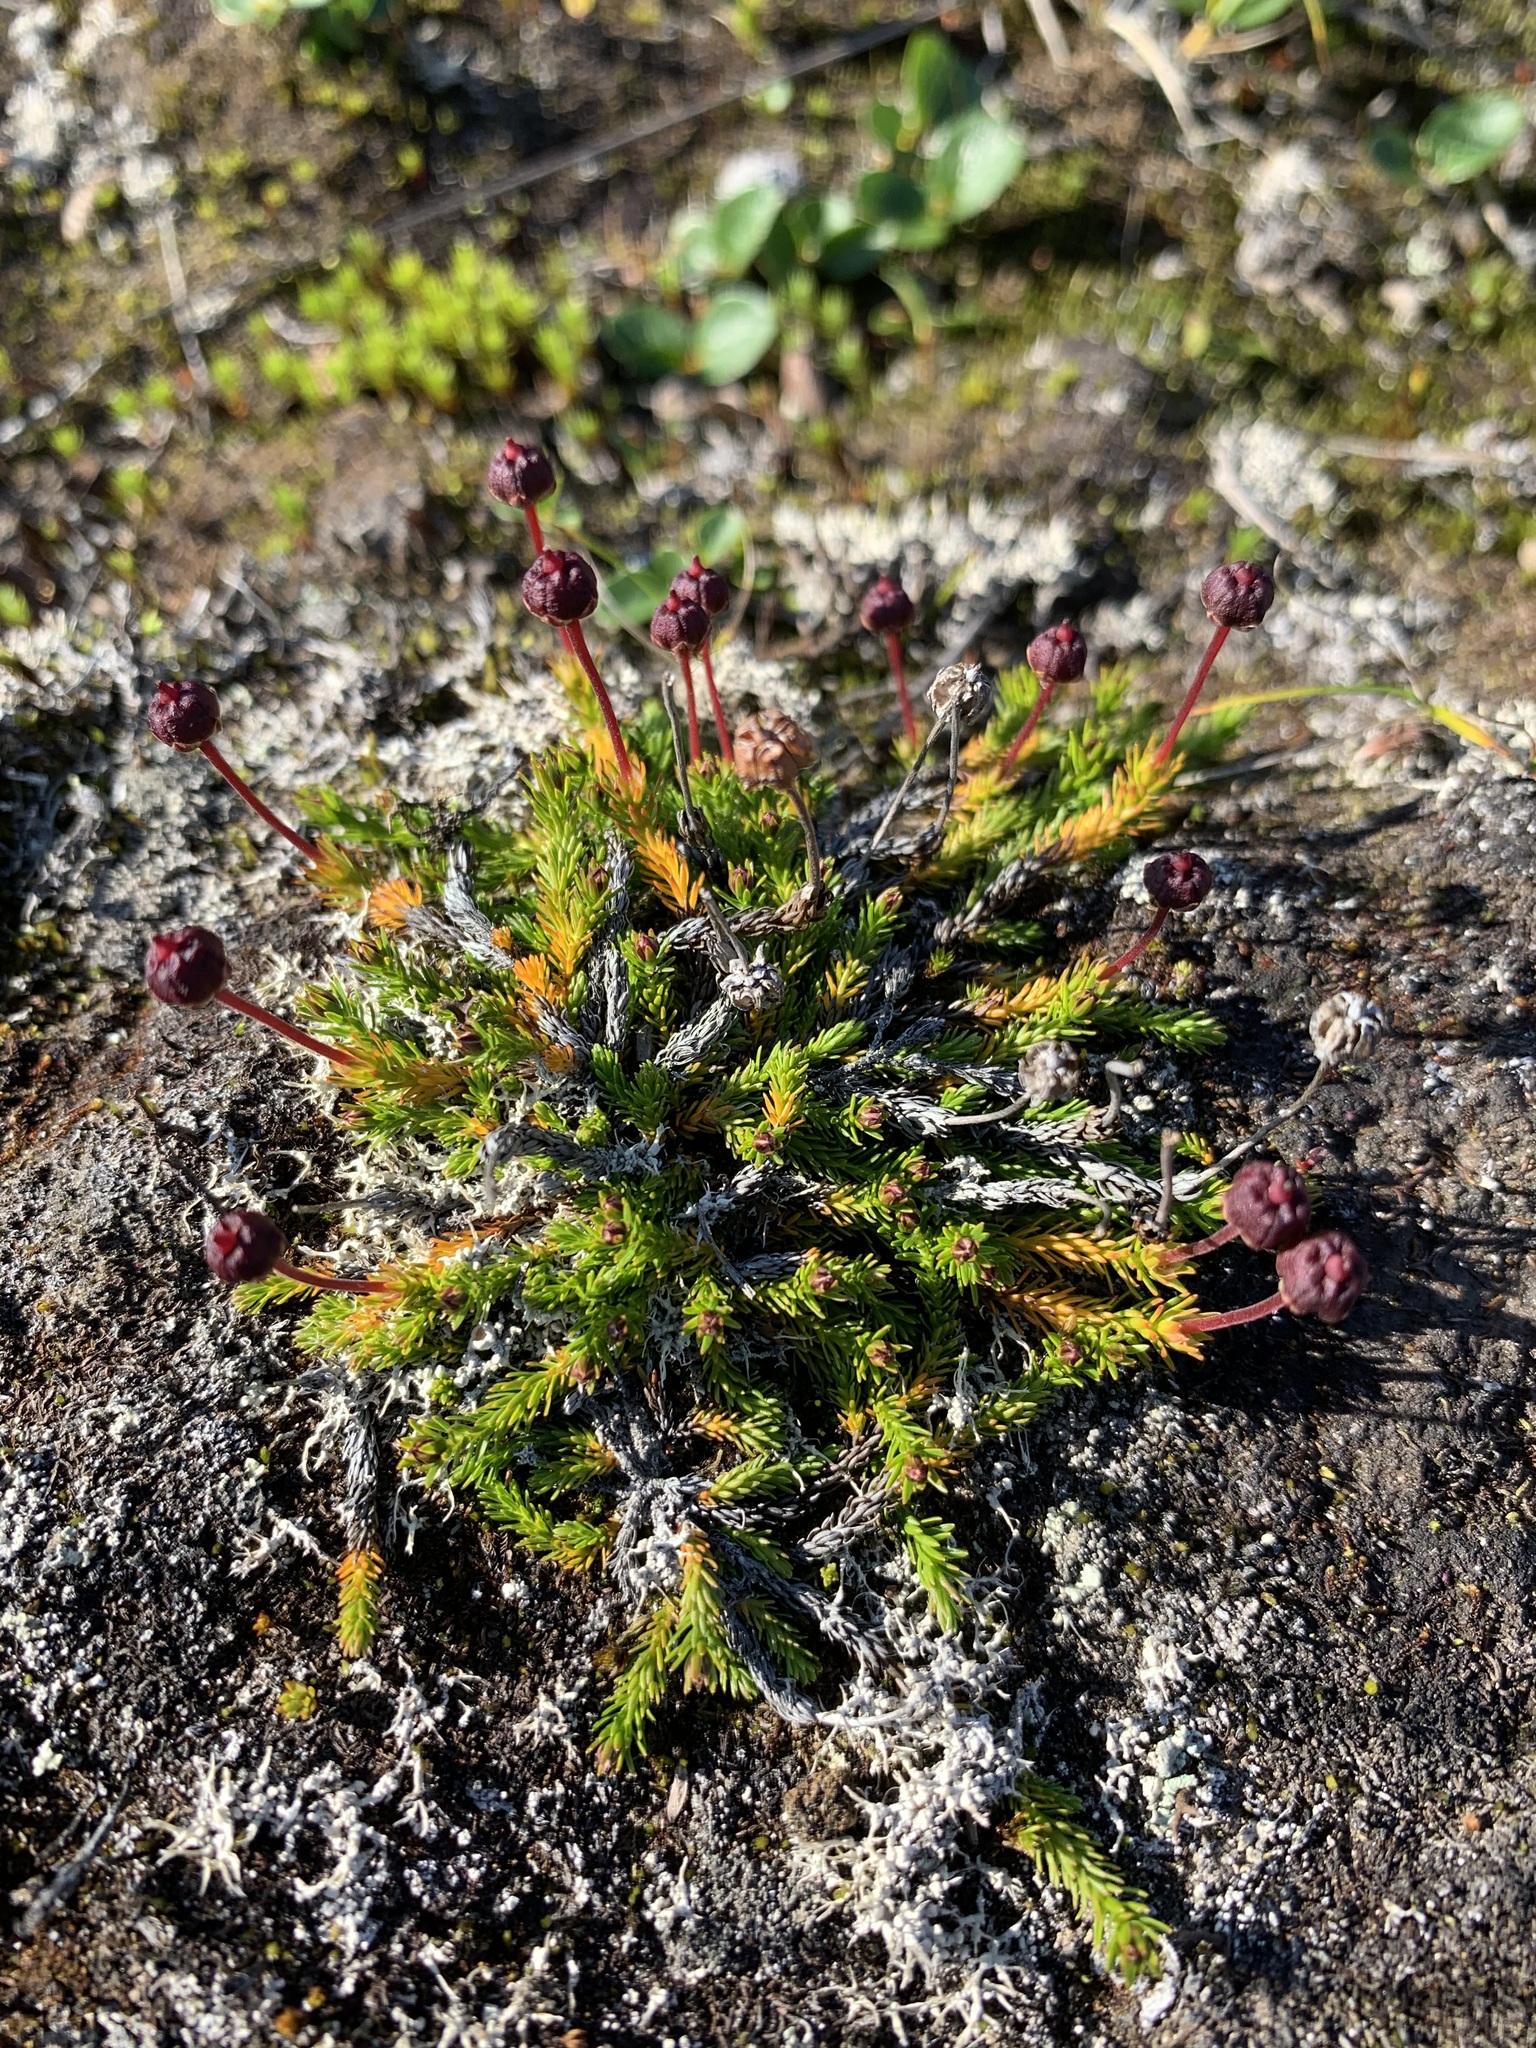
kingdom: Plantae
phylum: Tracheophyta
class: Magnoliopsida
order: Ericales
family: Ericaceae
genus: Harrimanella
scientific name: Harrimanella hypnoides
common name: Moss bell heather
